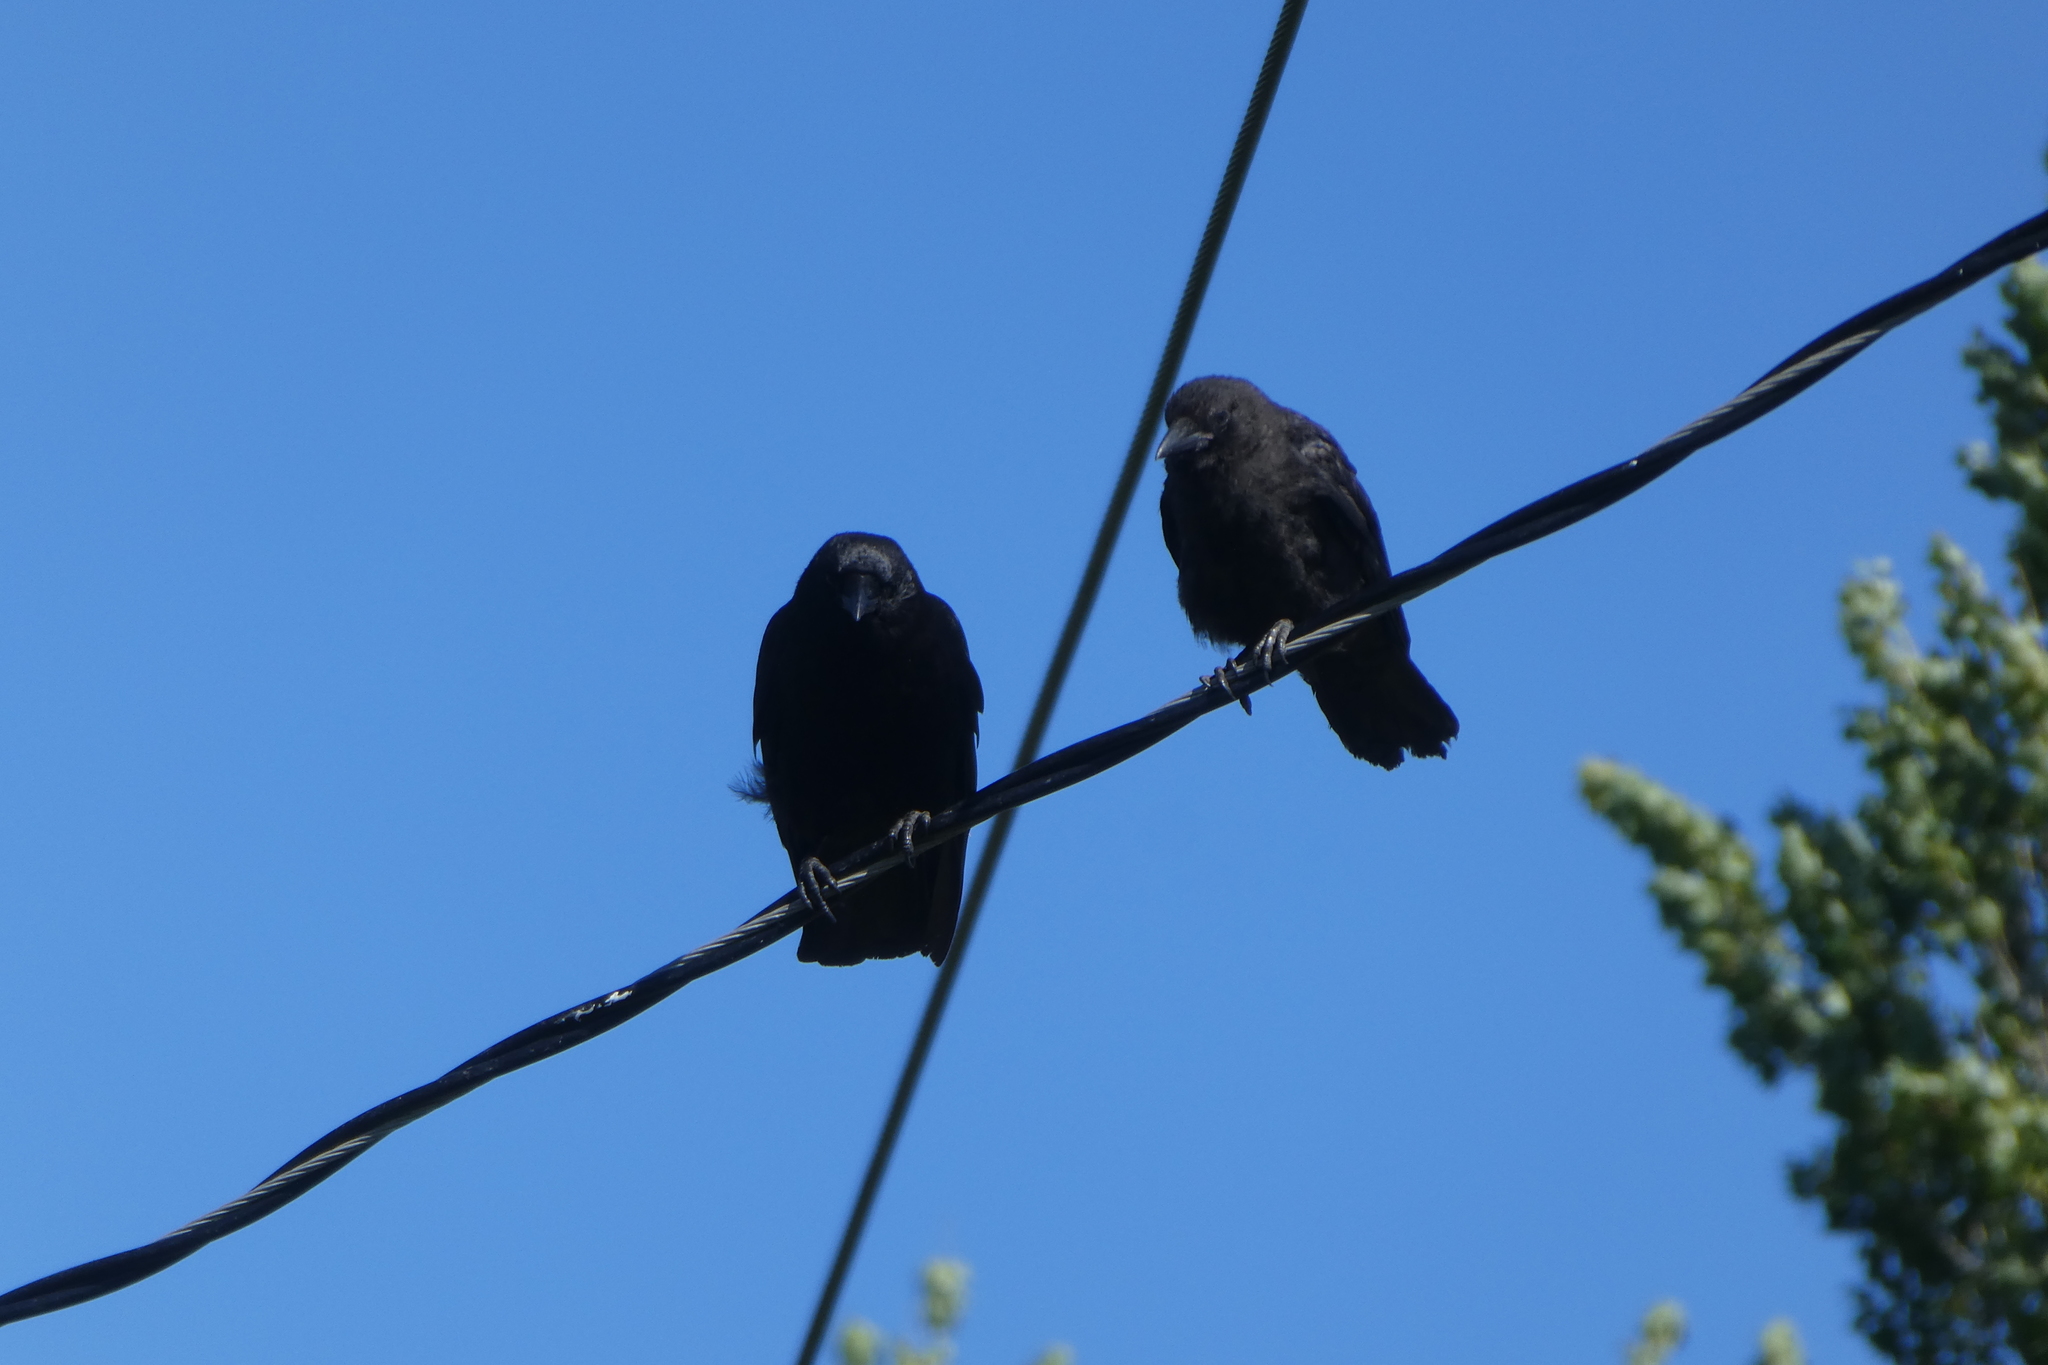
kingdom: Animalia
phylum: Chordata
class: Aves
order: Passeriformes
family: Corvidae
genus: Corvus
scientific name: Corvus brachyrhynchos
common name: American crow
